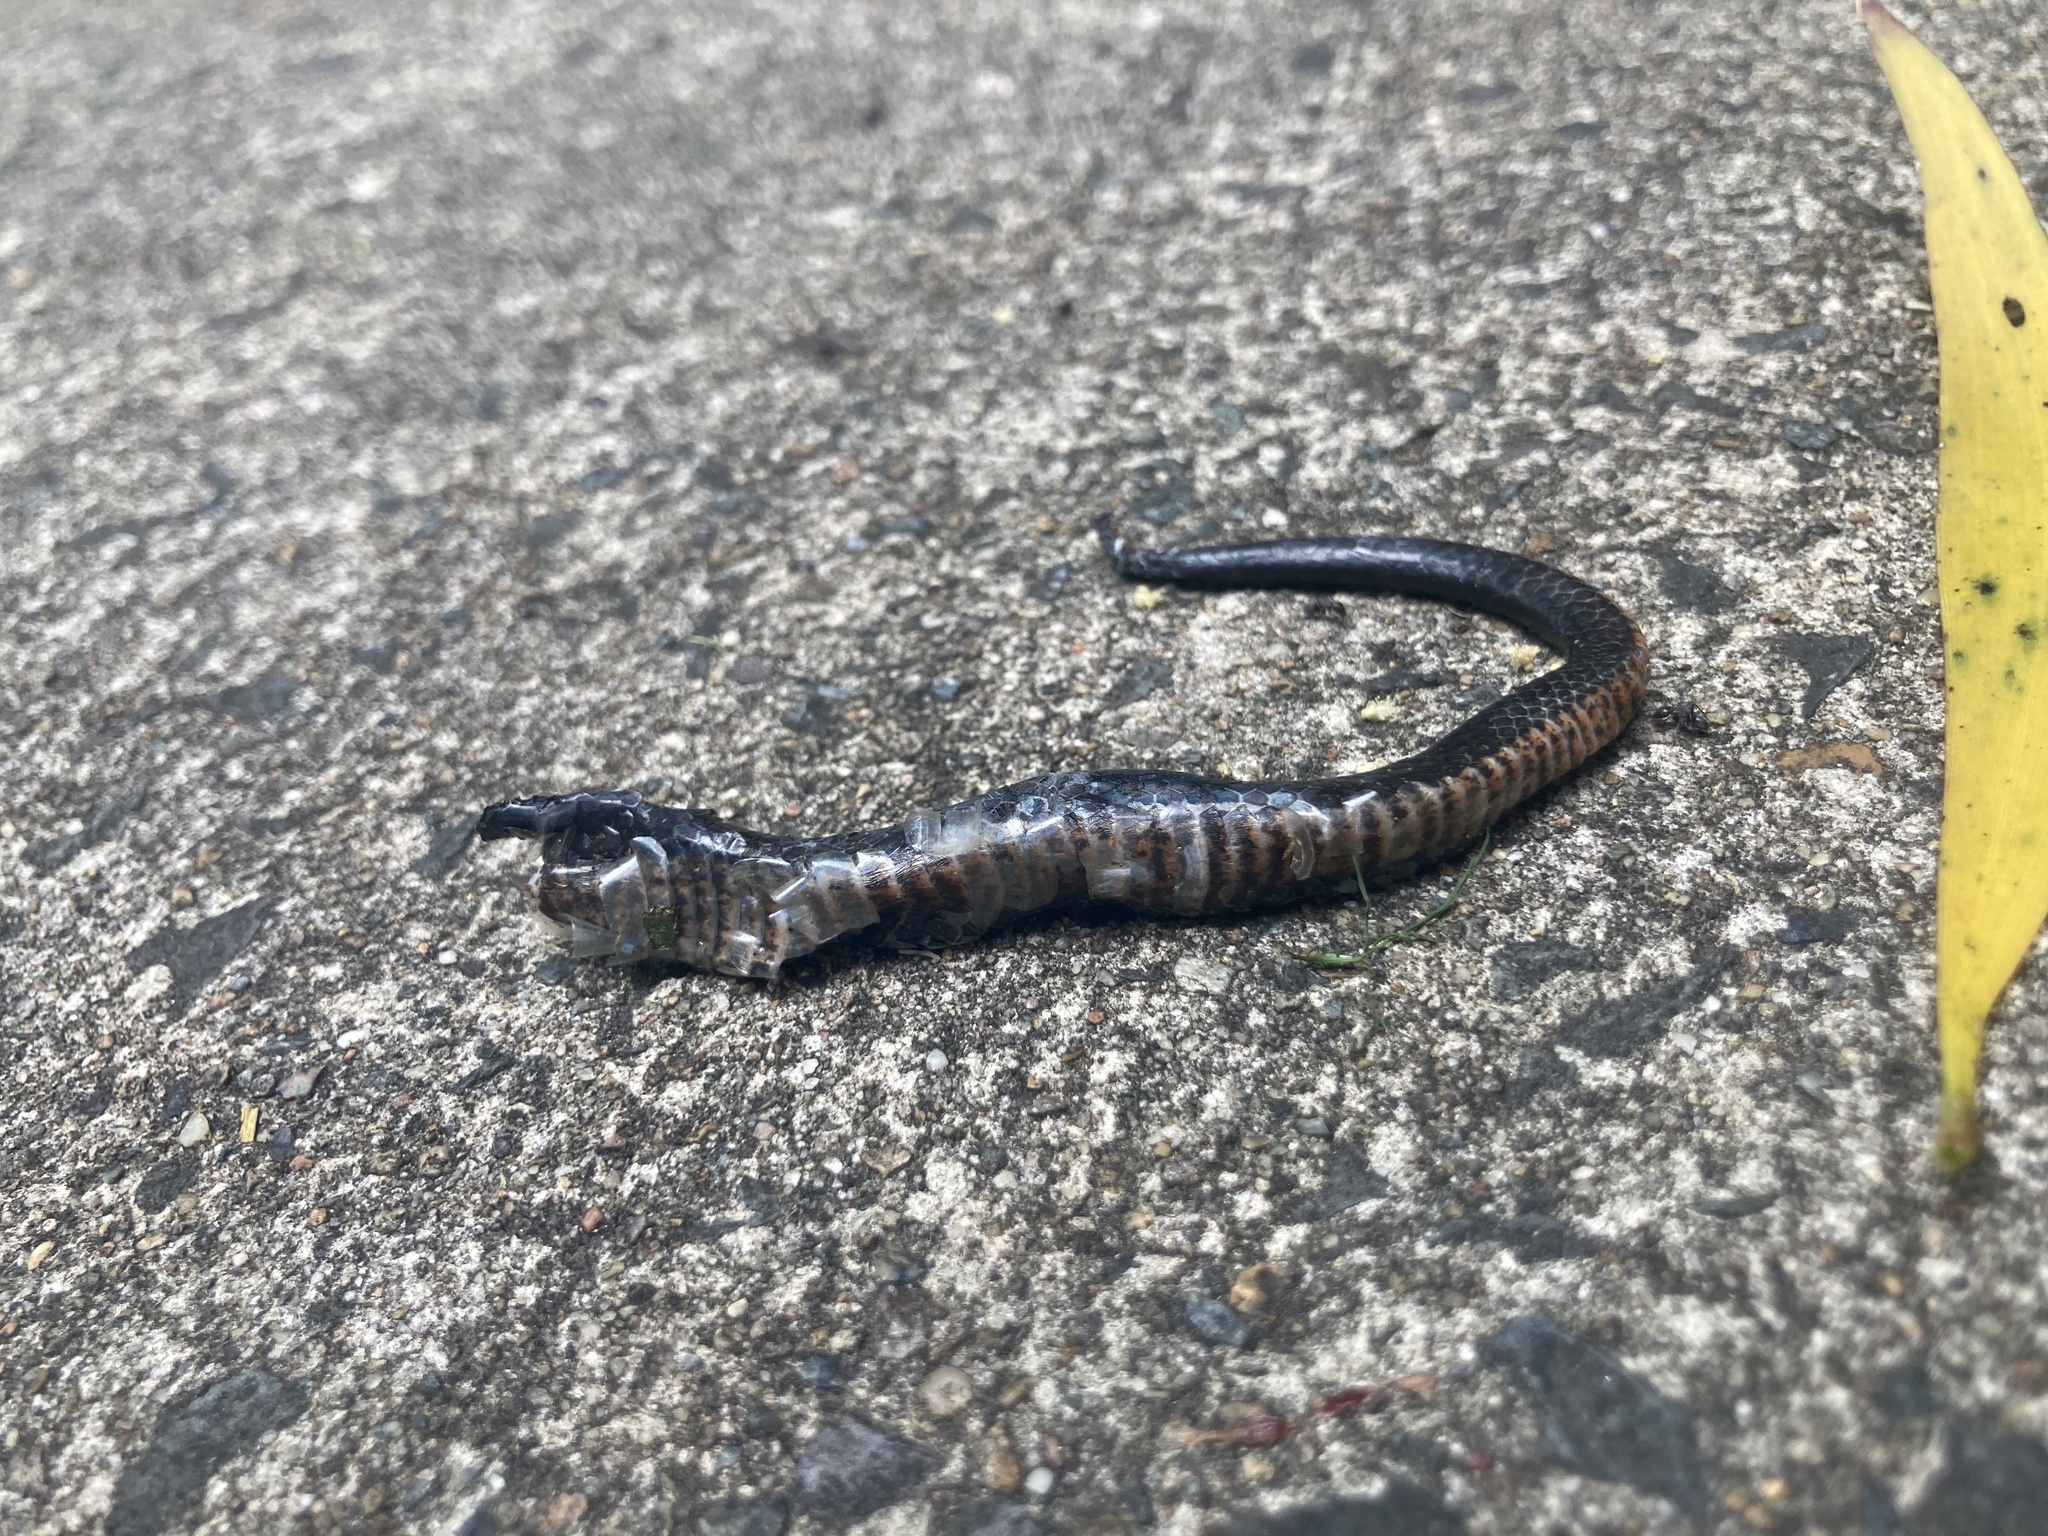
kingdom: Animalia
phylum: Chordata
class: Squamata
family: Elapidae
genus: Cacophis
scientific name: Cacophis squamulosus
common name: Golden crowned snake
